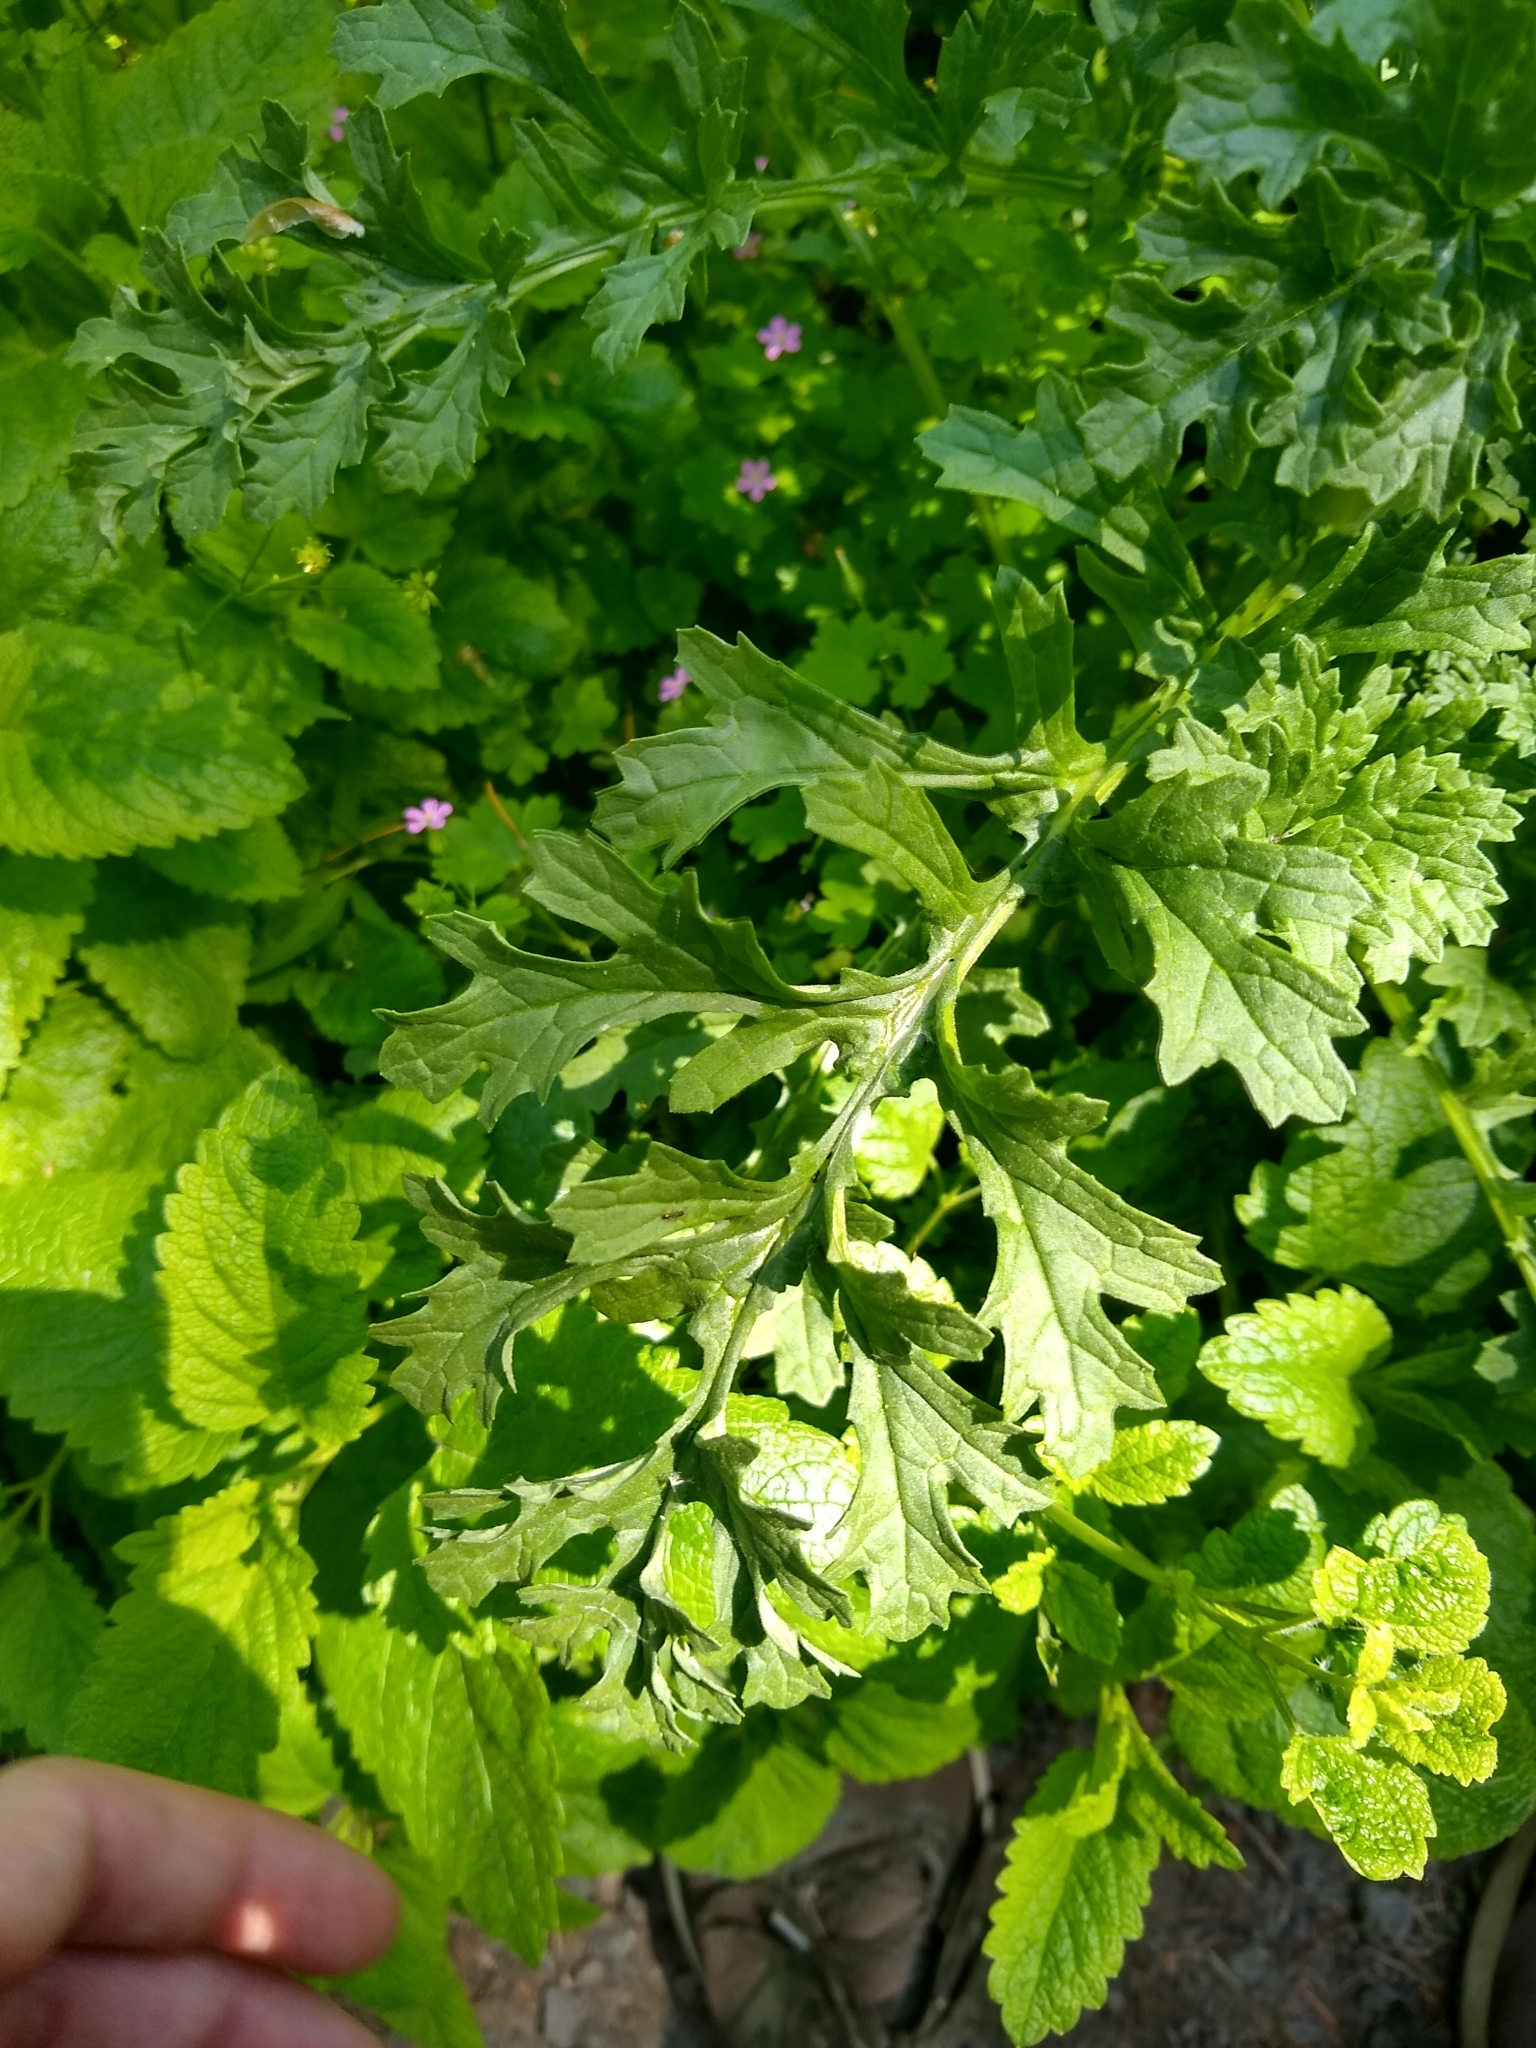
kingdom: Plantae
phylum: Tracheophyta
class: Magnoliopsida
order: Asterales
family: Asteraceae
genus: Jacobaea
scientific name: Jacobaea vulgaris
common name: Stinking willie
